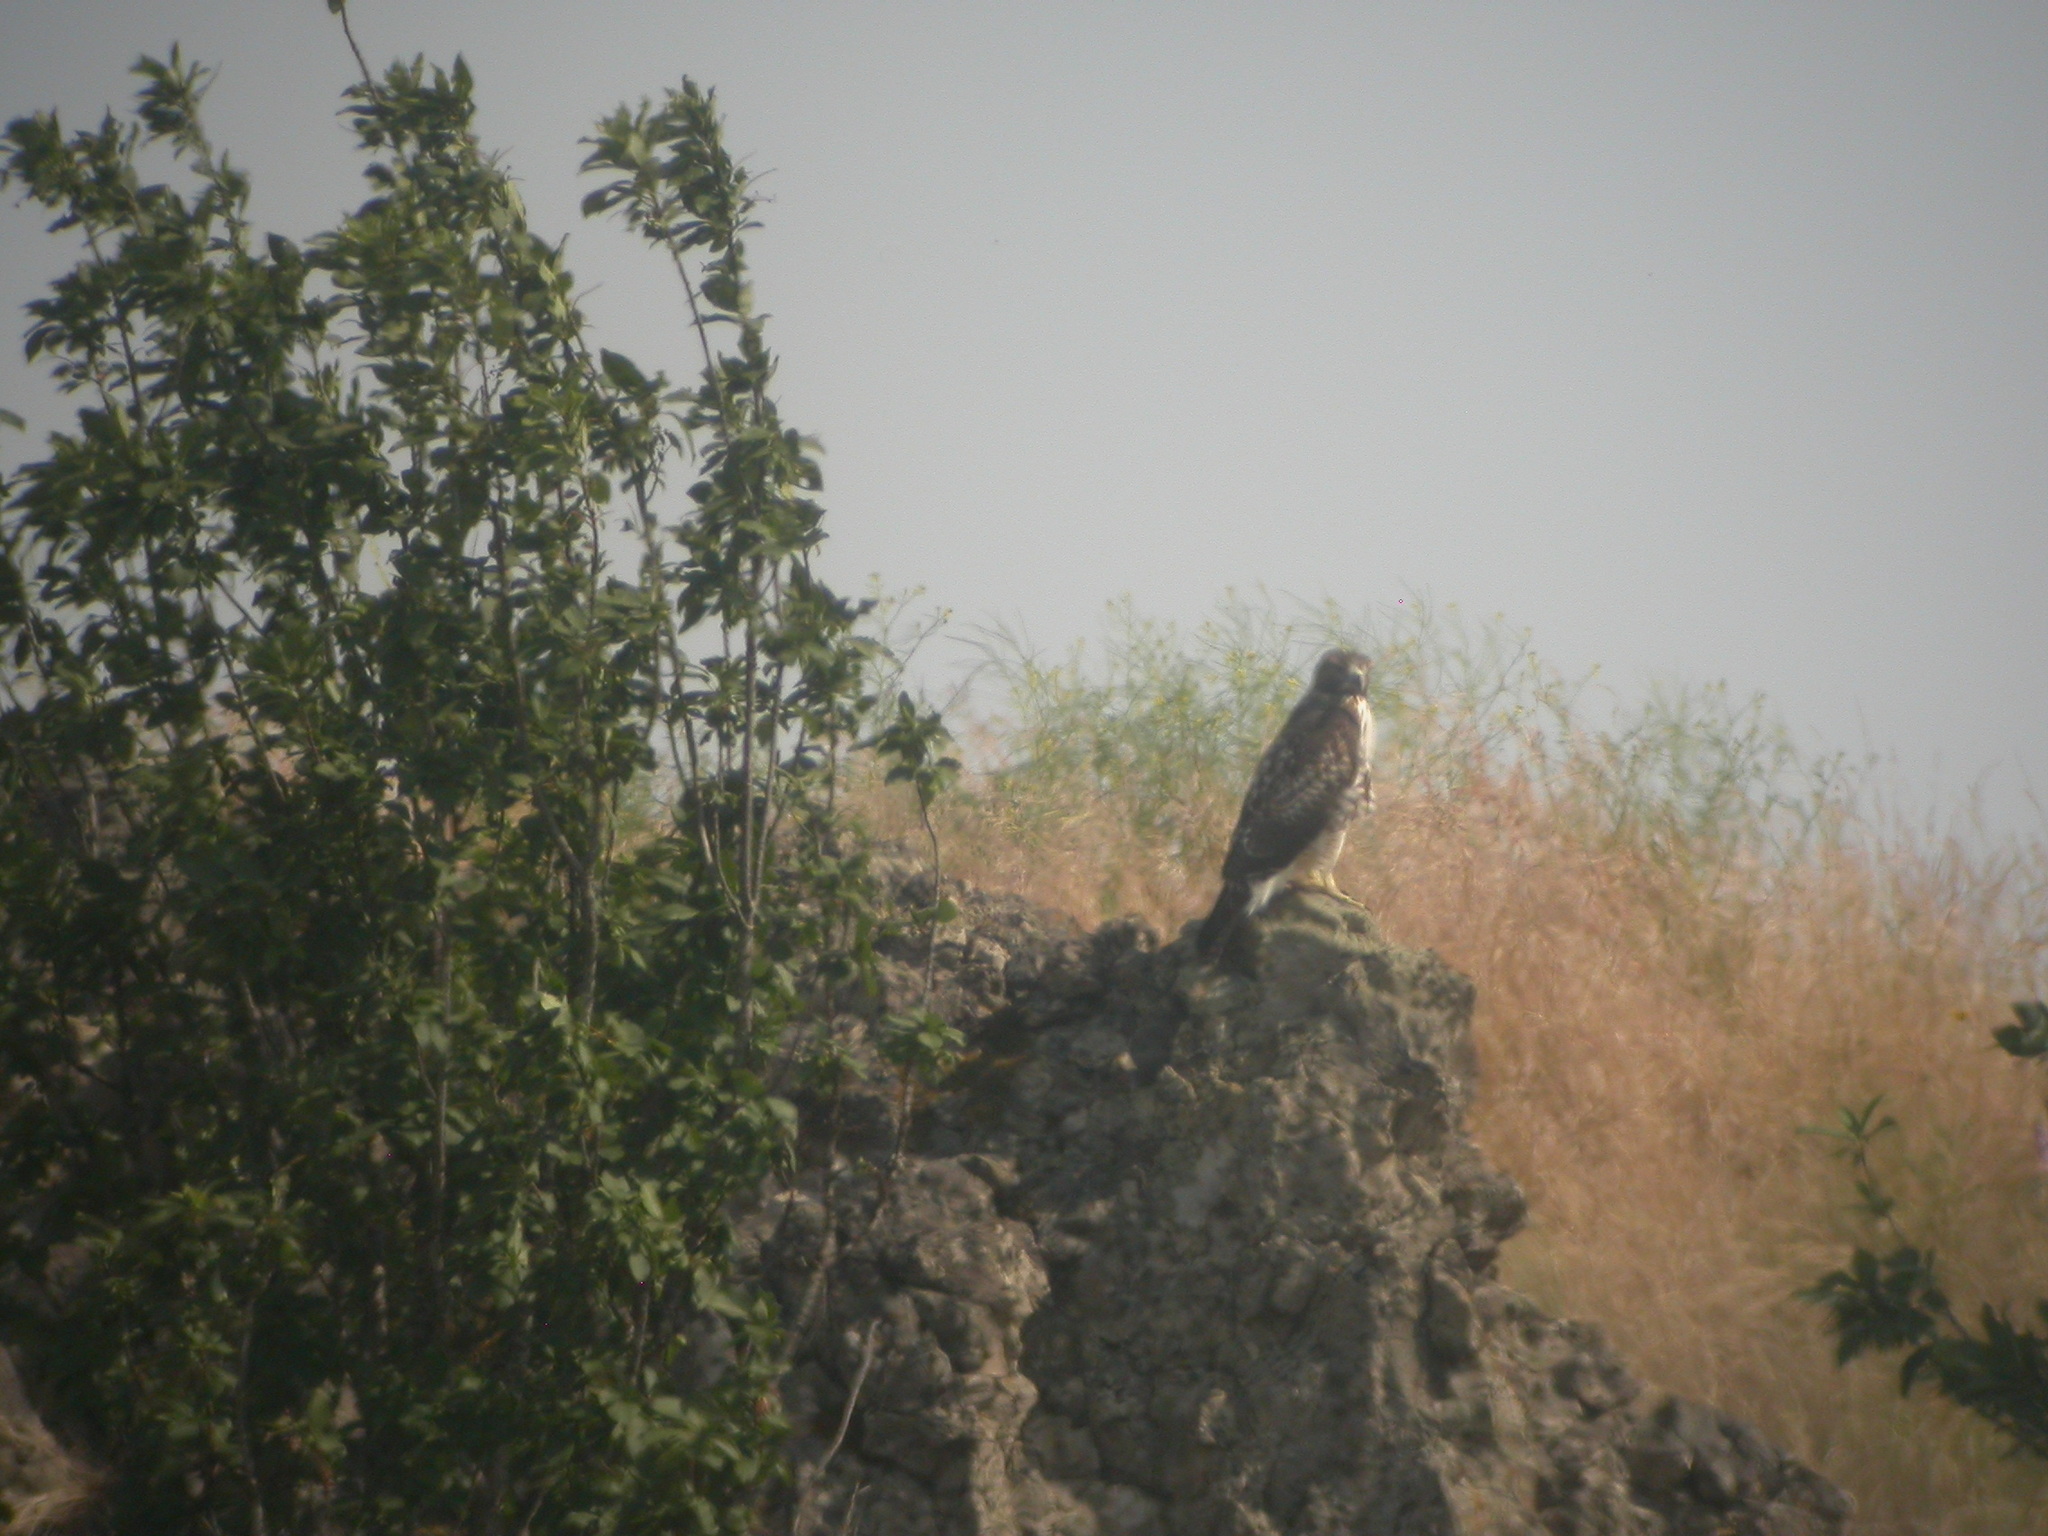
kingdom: Animalia
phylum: Chordata
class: Aves
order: Accipitriformes
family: Accipitridae
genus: Buteo
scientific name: Buteo jamaicensis
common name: Red-tailed hawk
